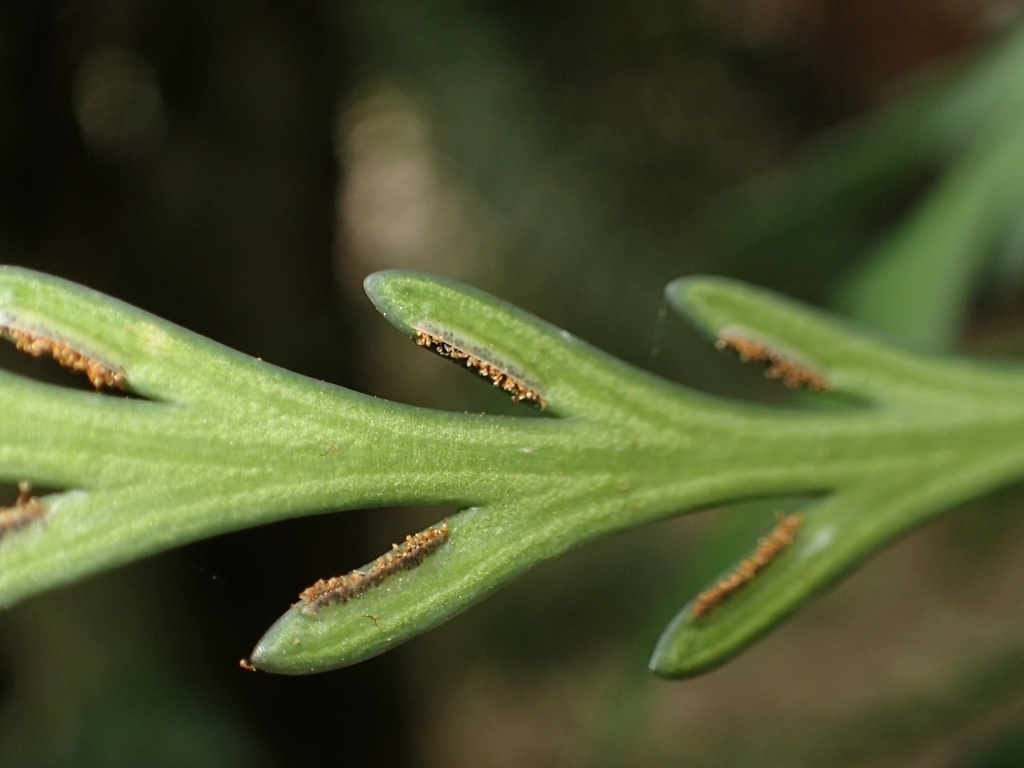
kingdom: Plantae
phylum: Tracheophyta
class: Polypodiopsida
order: Polypodiales
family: Aspleniaceae
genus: Asplenium
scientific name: Asplenium flaccidum
